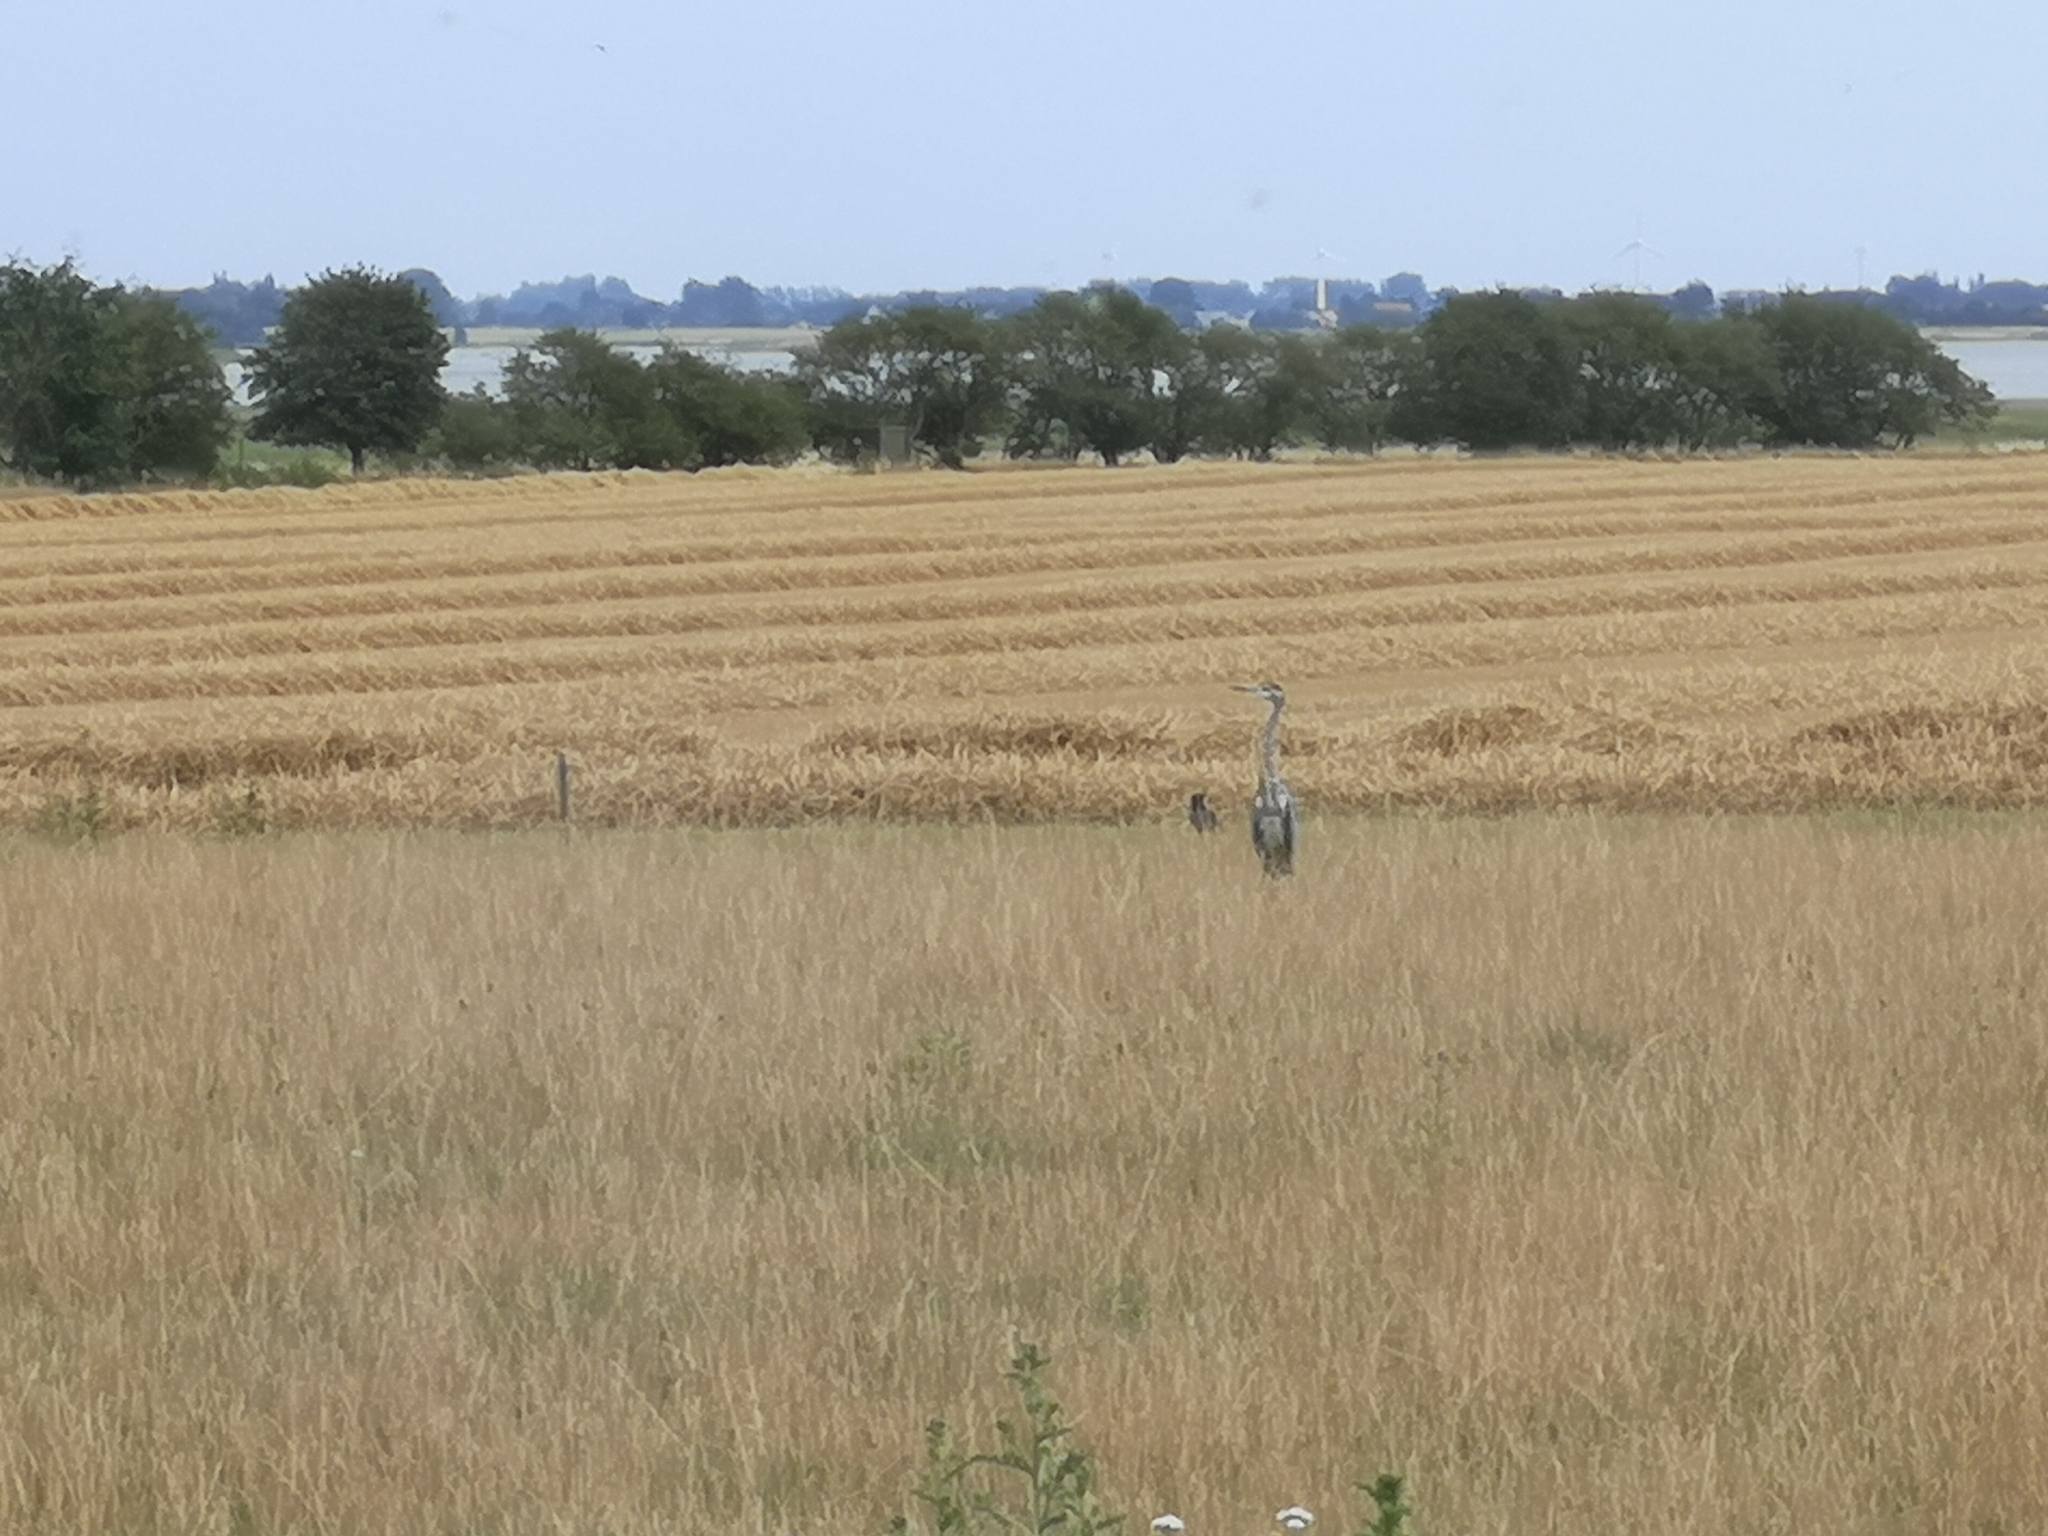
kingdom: Animalia
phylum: Chordata
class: Aves
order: Pelecaniformes
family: Ardeidae
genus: Ardea
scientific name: Ardea cinerea
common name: Grey heron
